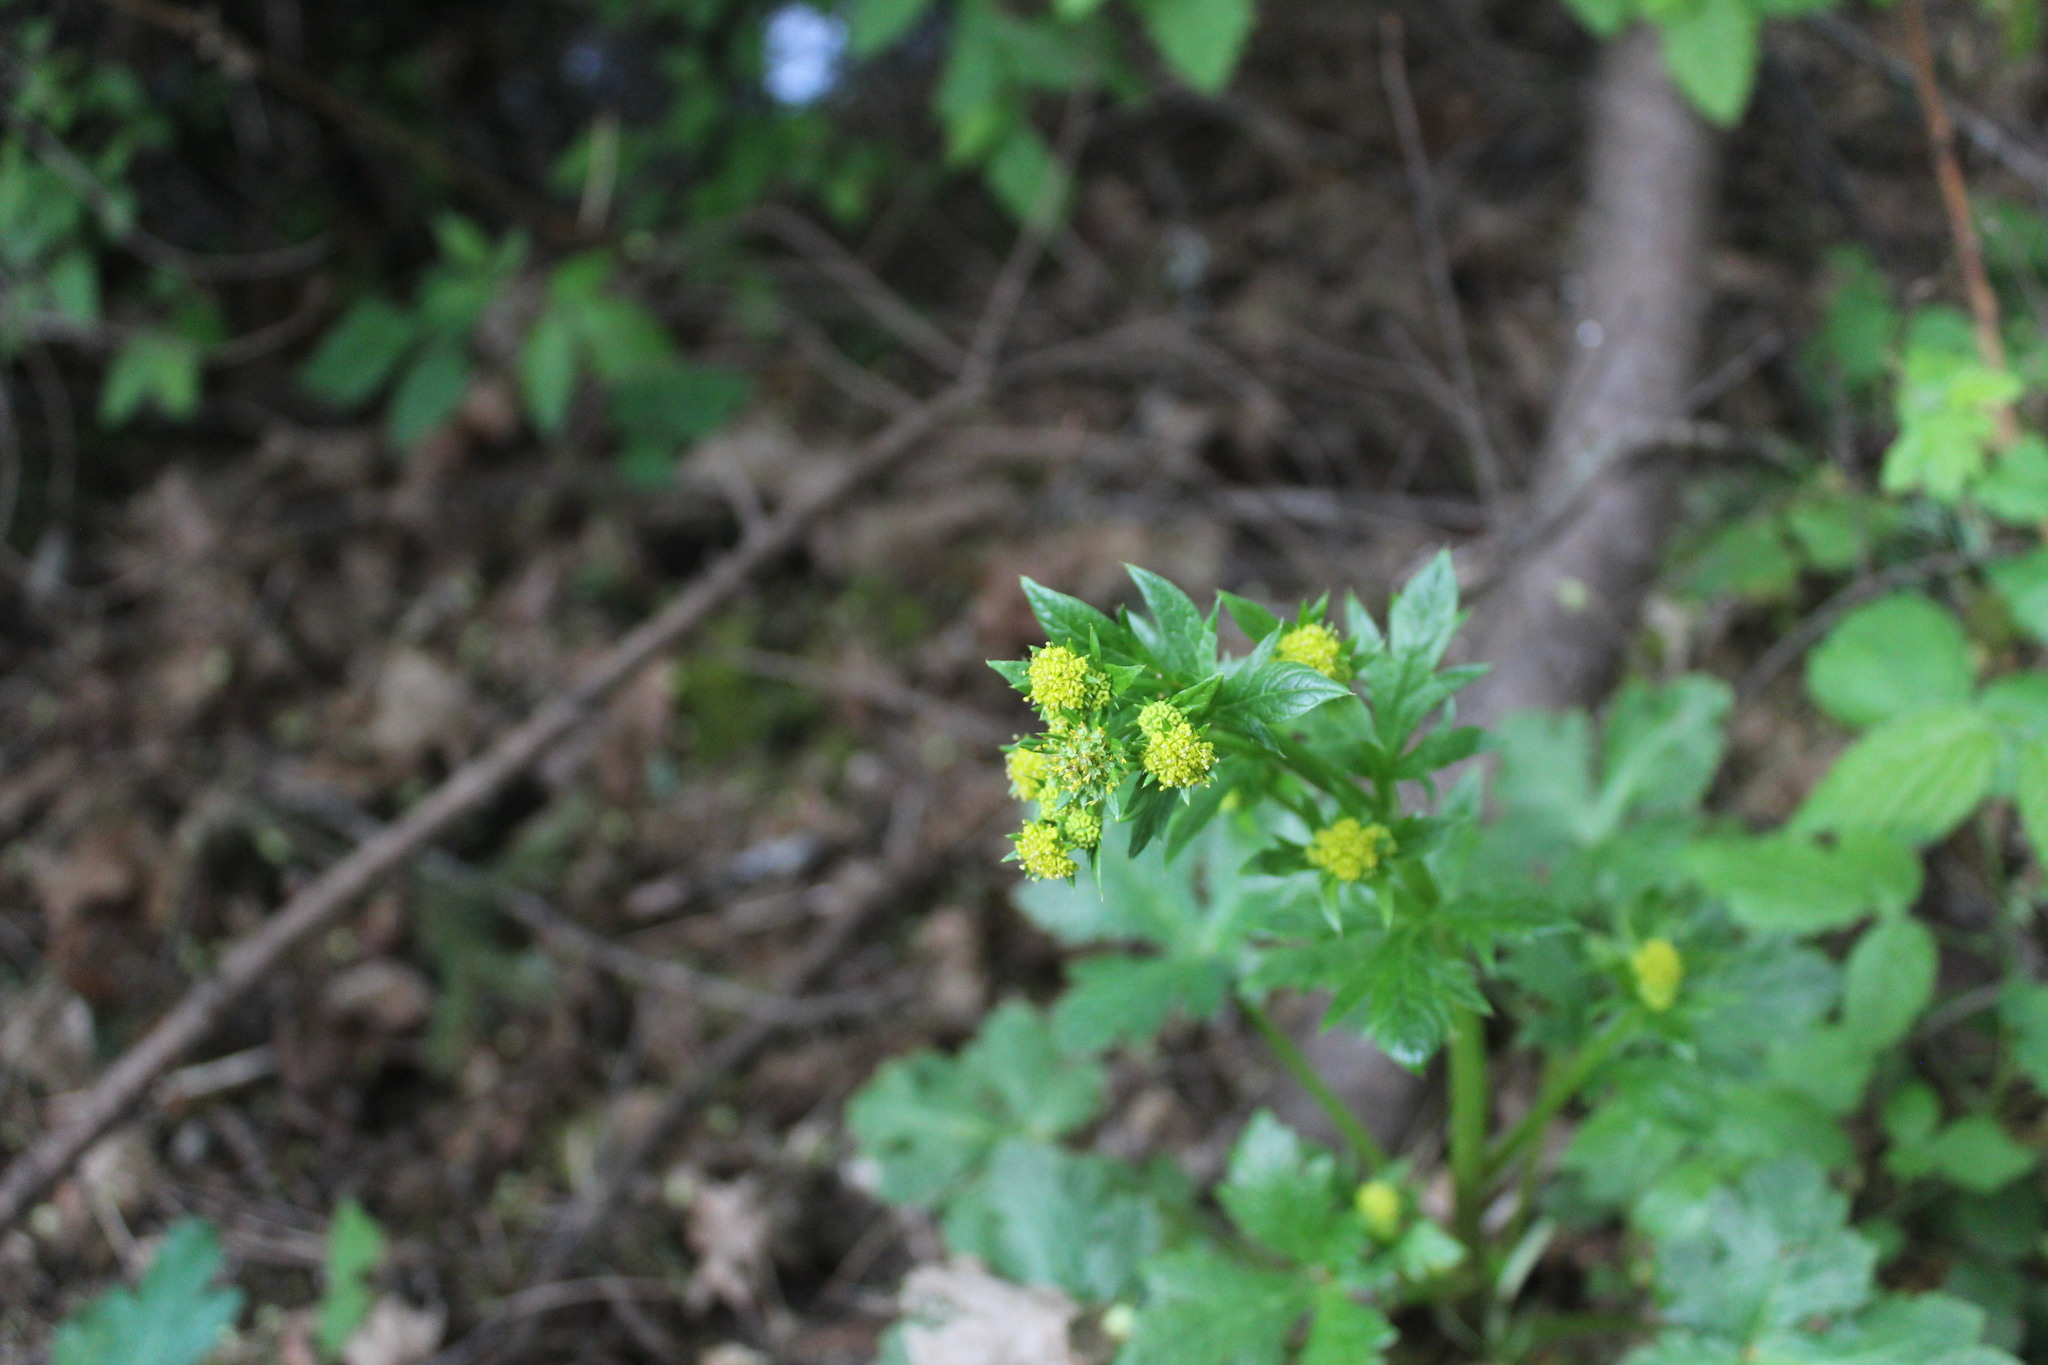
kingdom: Plantae
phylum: Tracheophyta
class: Magnoliopsida
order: Apiales
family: Apiaceae
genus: Sanicula
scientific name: Sanicula crassicaulis
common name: Western snakeroot
